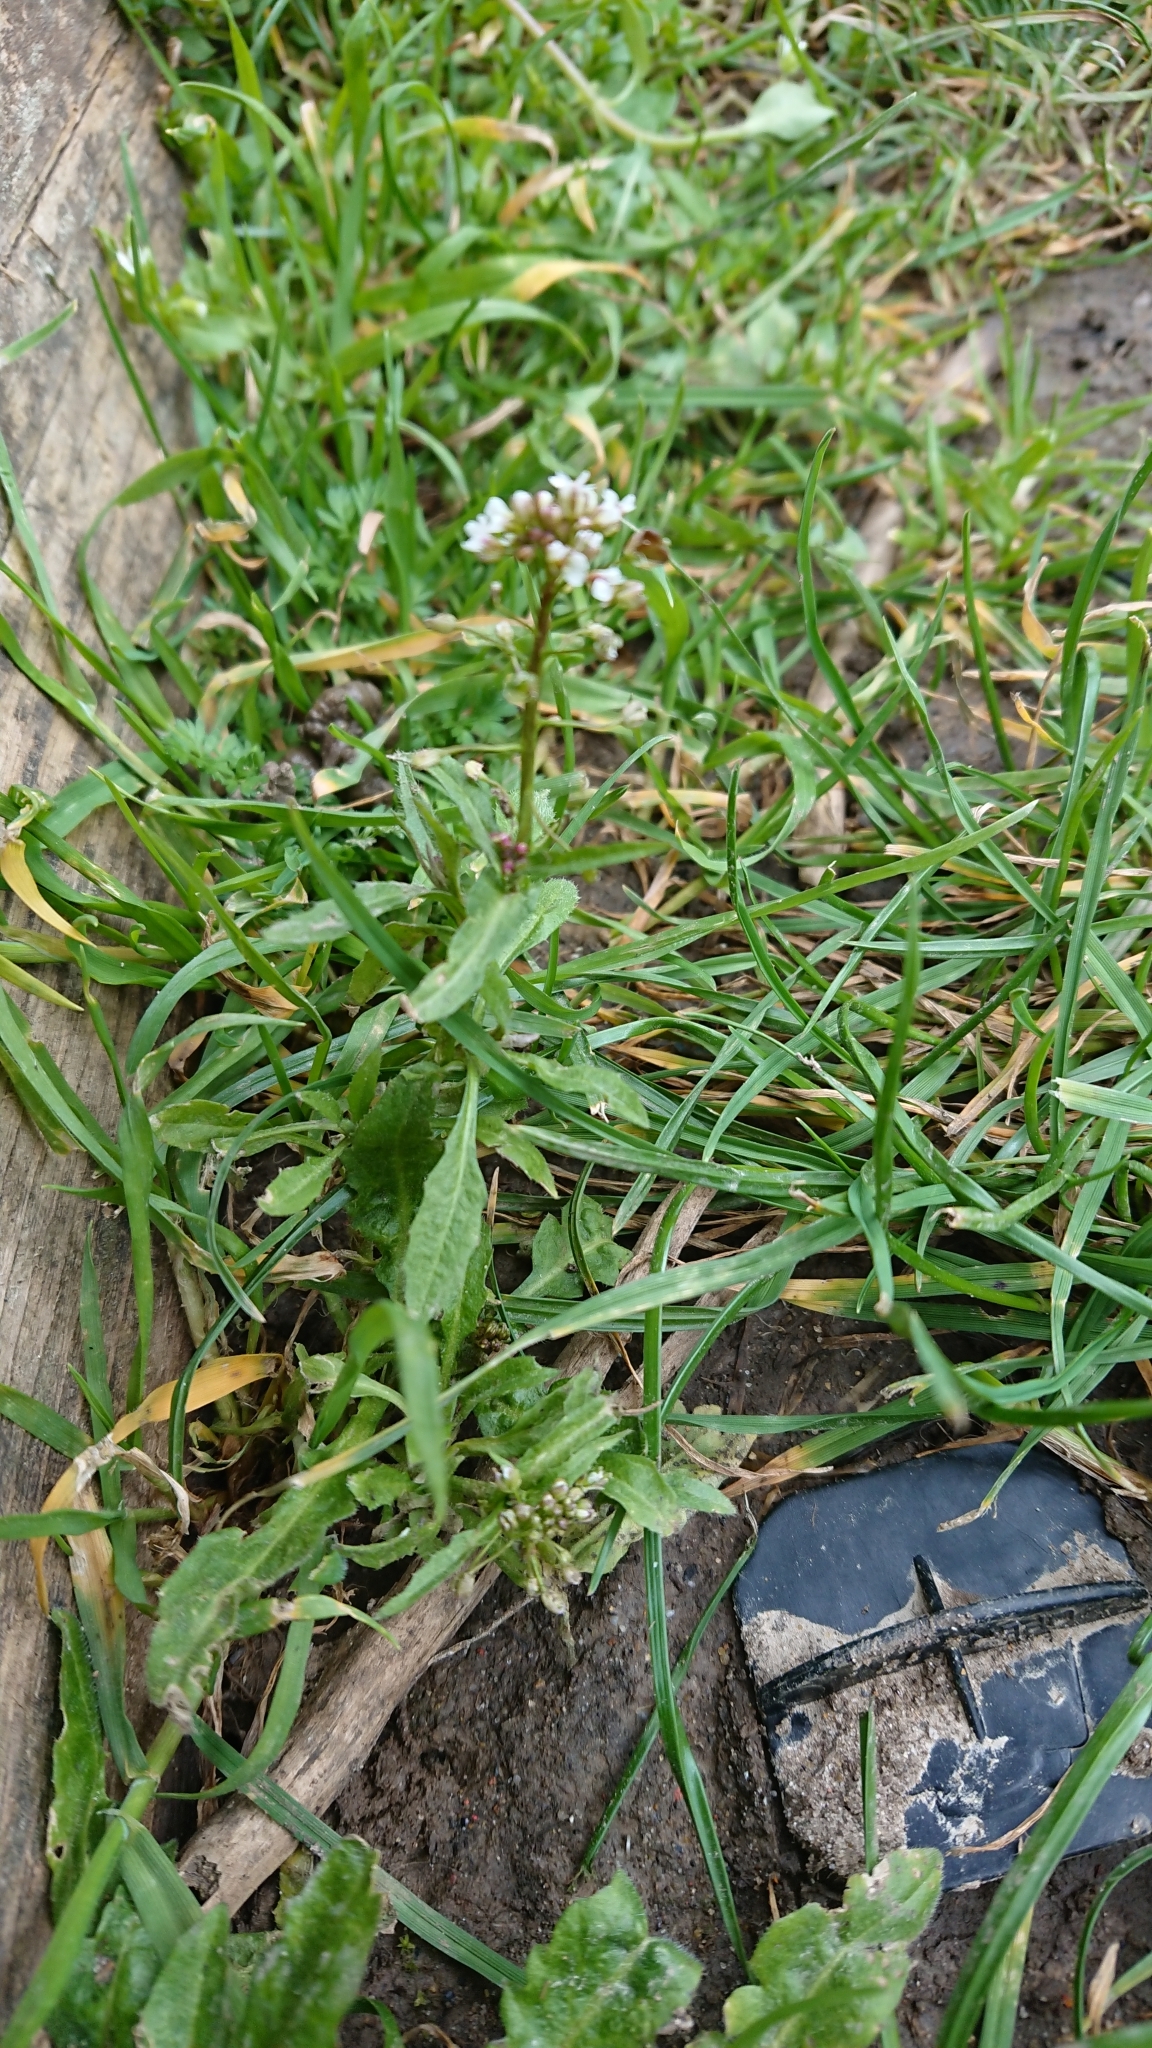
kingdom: Plantae
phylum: Tracheophyta
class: Magnoliopsida
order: Brassicales
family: Brassicaceae
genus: Capsella
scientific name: Capsella bursa-pastoris
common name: Shepherd's purse
